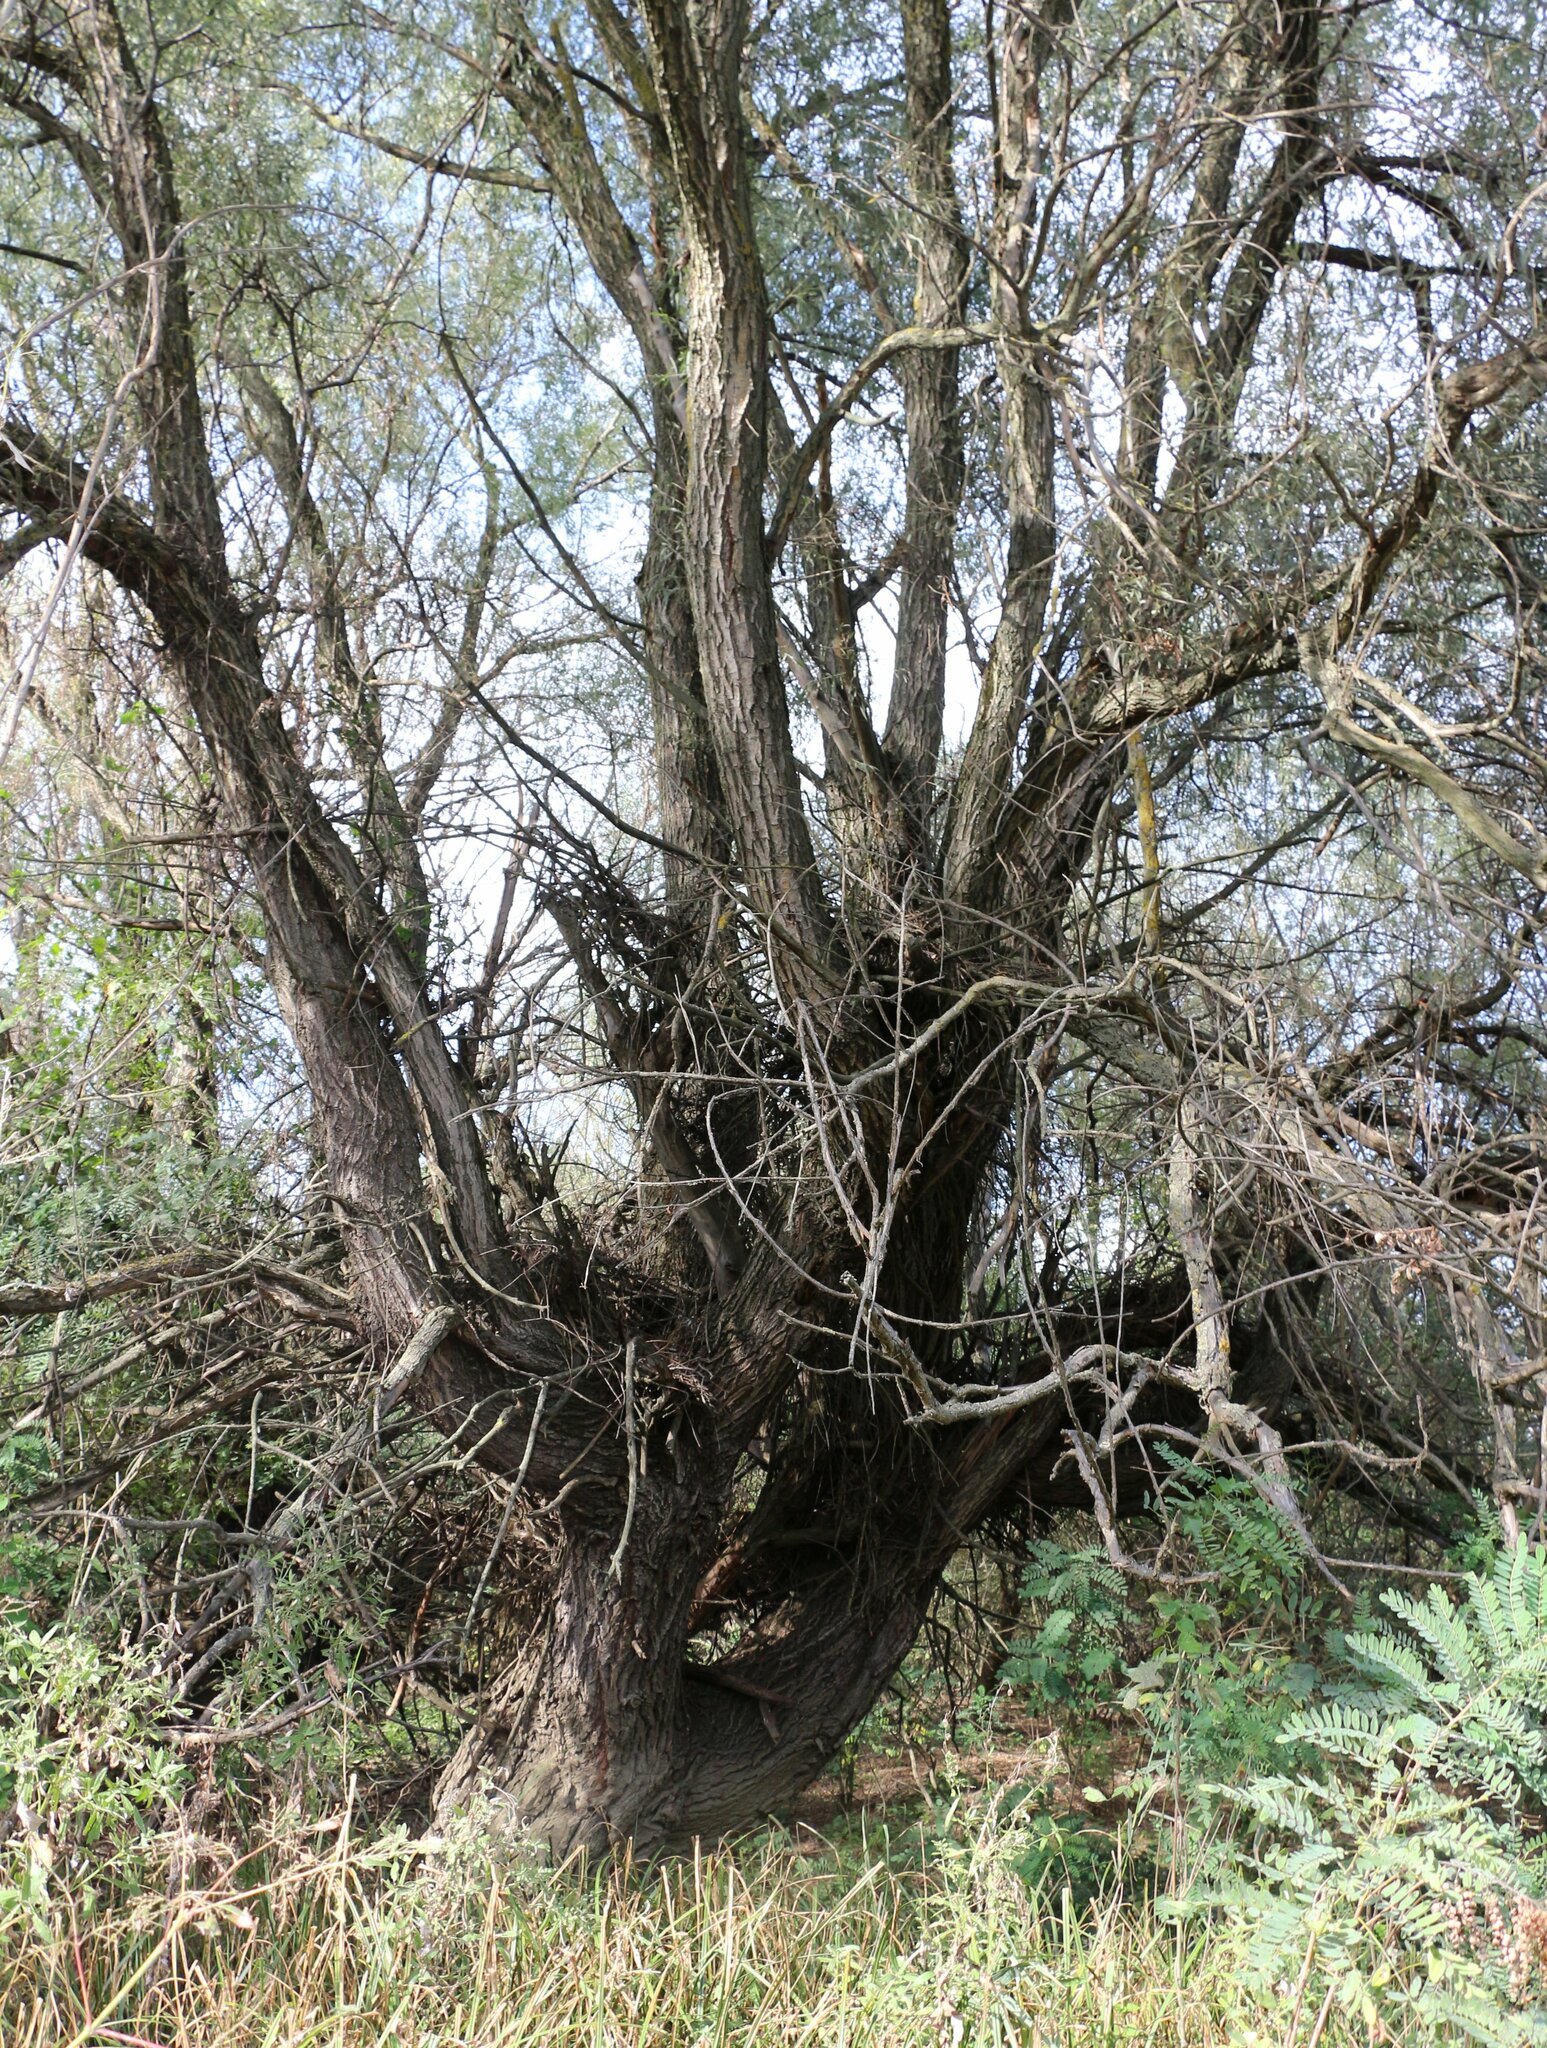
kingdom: Plantae
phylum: Tracheophyta
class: Magnoliopsida
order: Malpighiales
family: Salicaceae
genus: Salix
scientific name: Salix alba
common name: White willow
